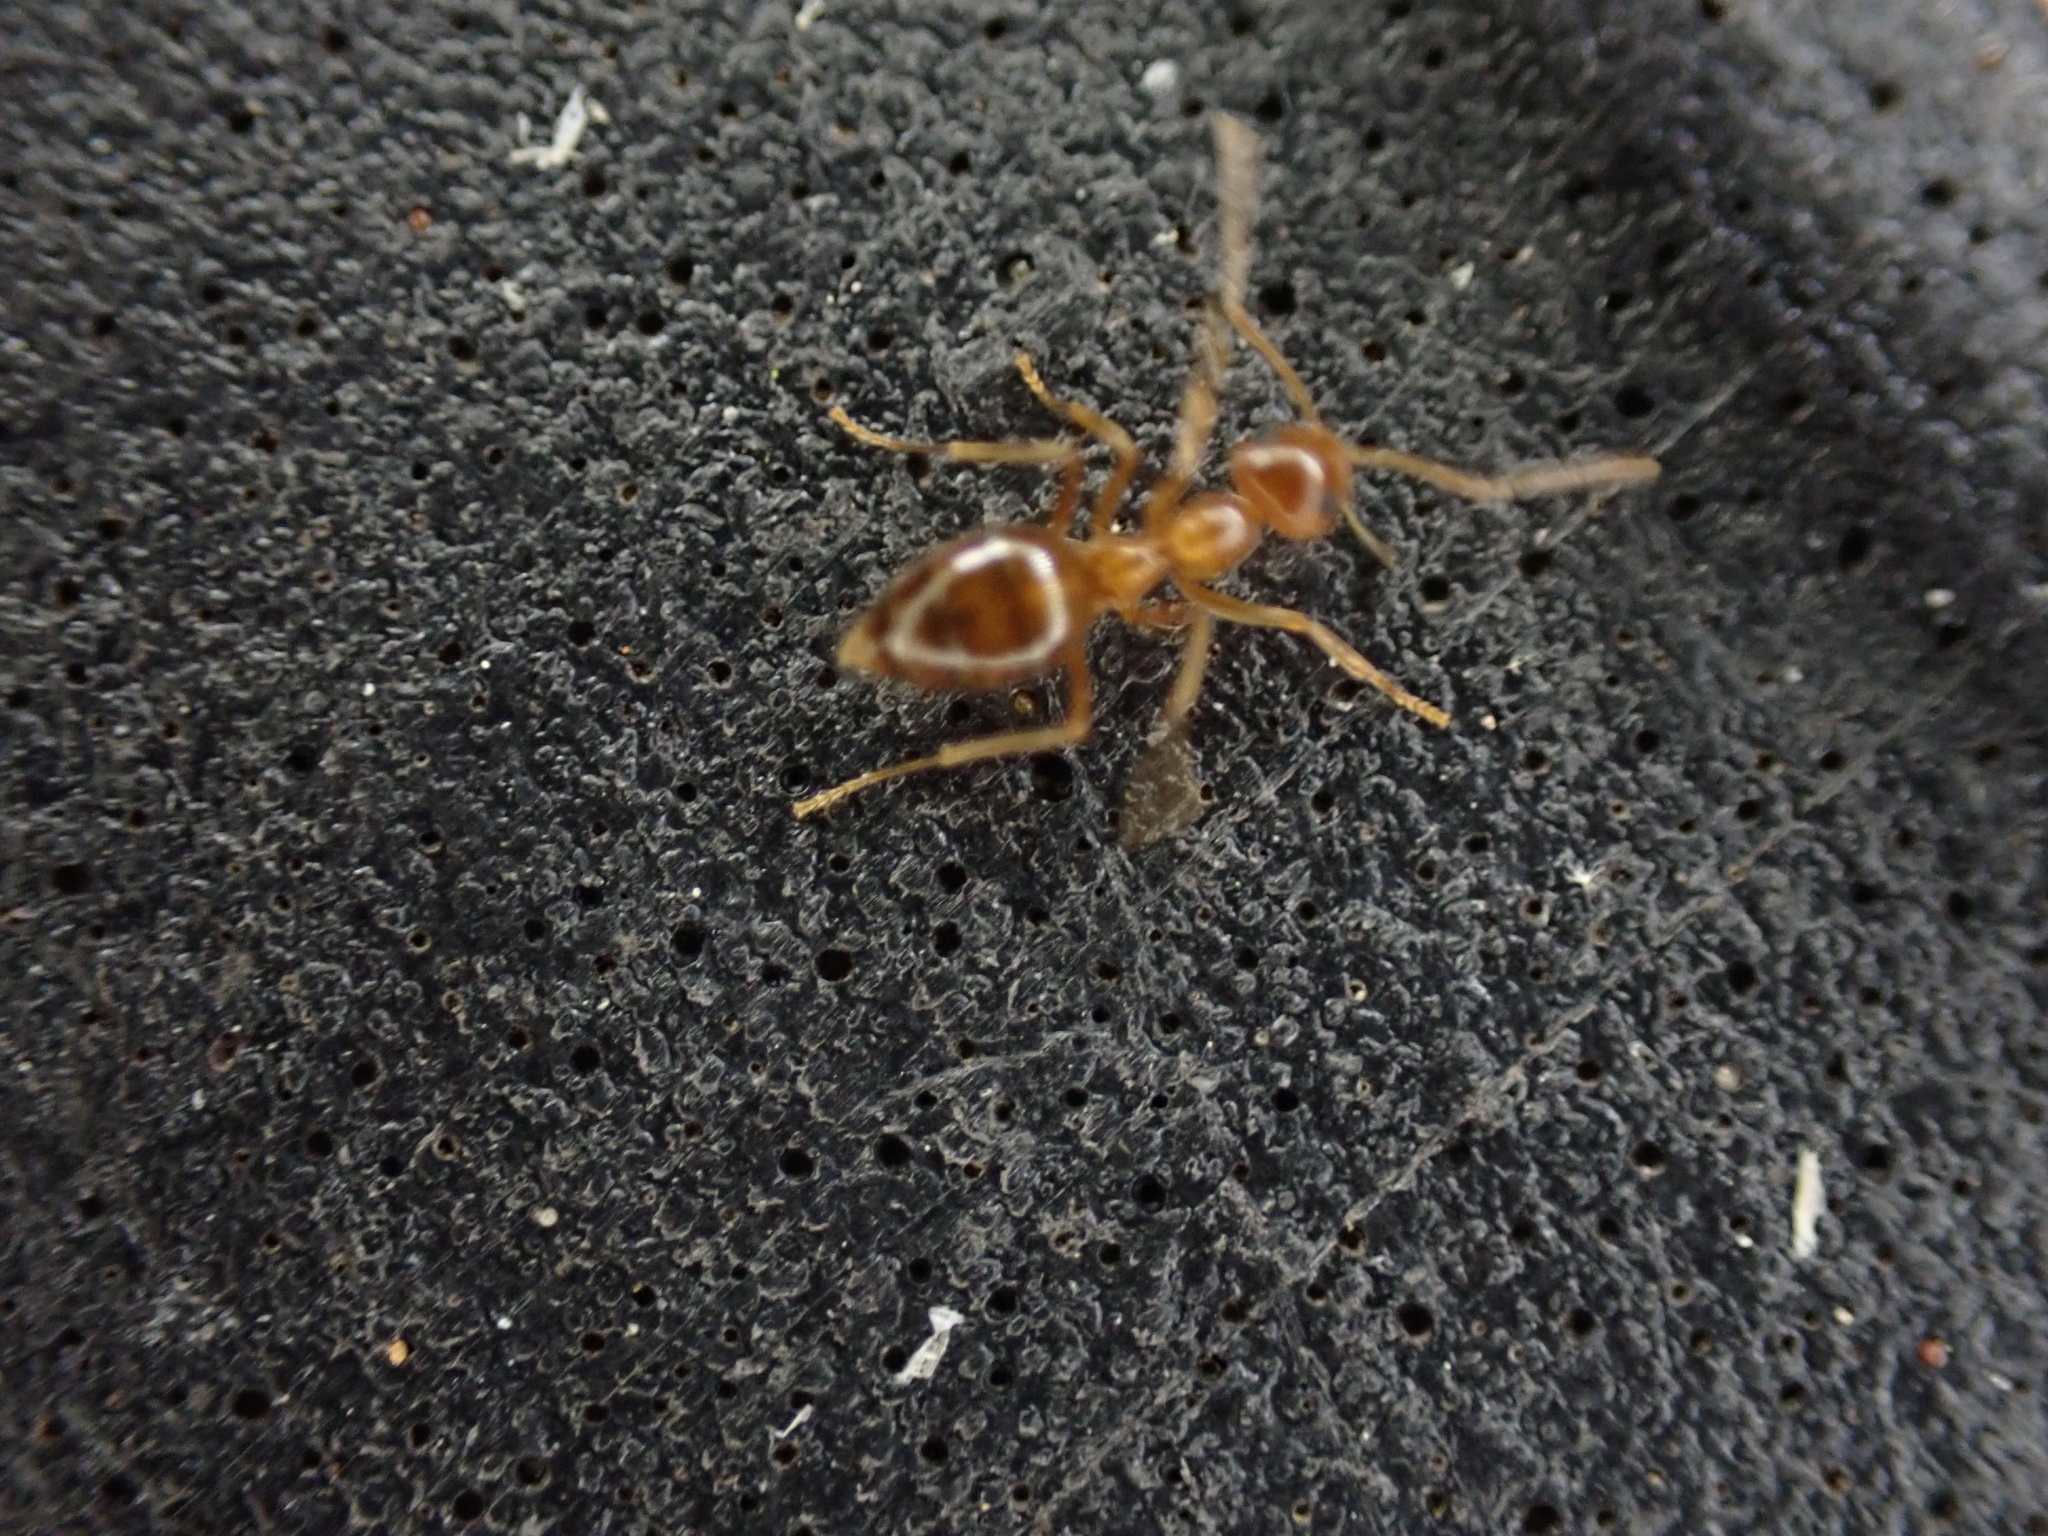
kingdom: Animalia
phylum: Arthropoda
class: Insecta
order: Hymenoptera
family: Formicidae
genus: Prenolepis
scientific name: Prenolepis imparis
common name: Small honey ant
